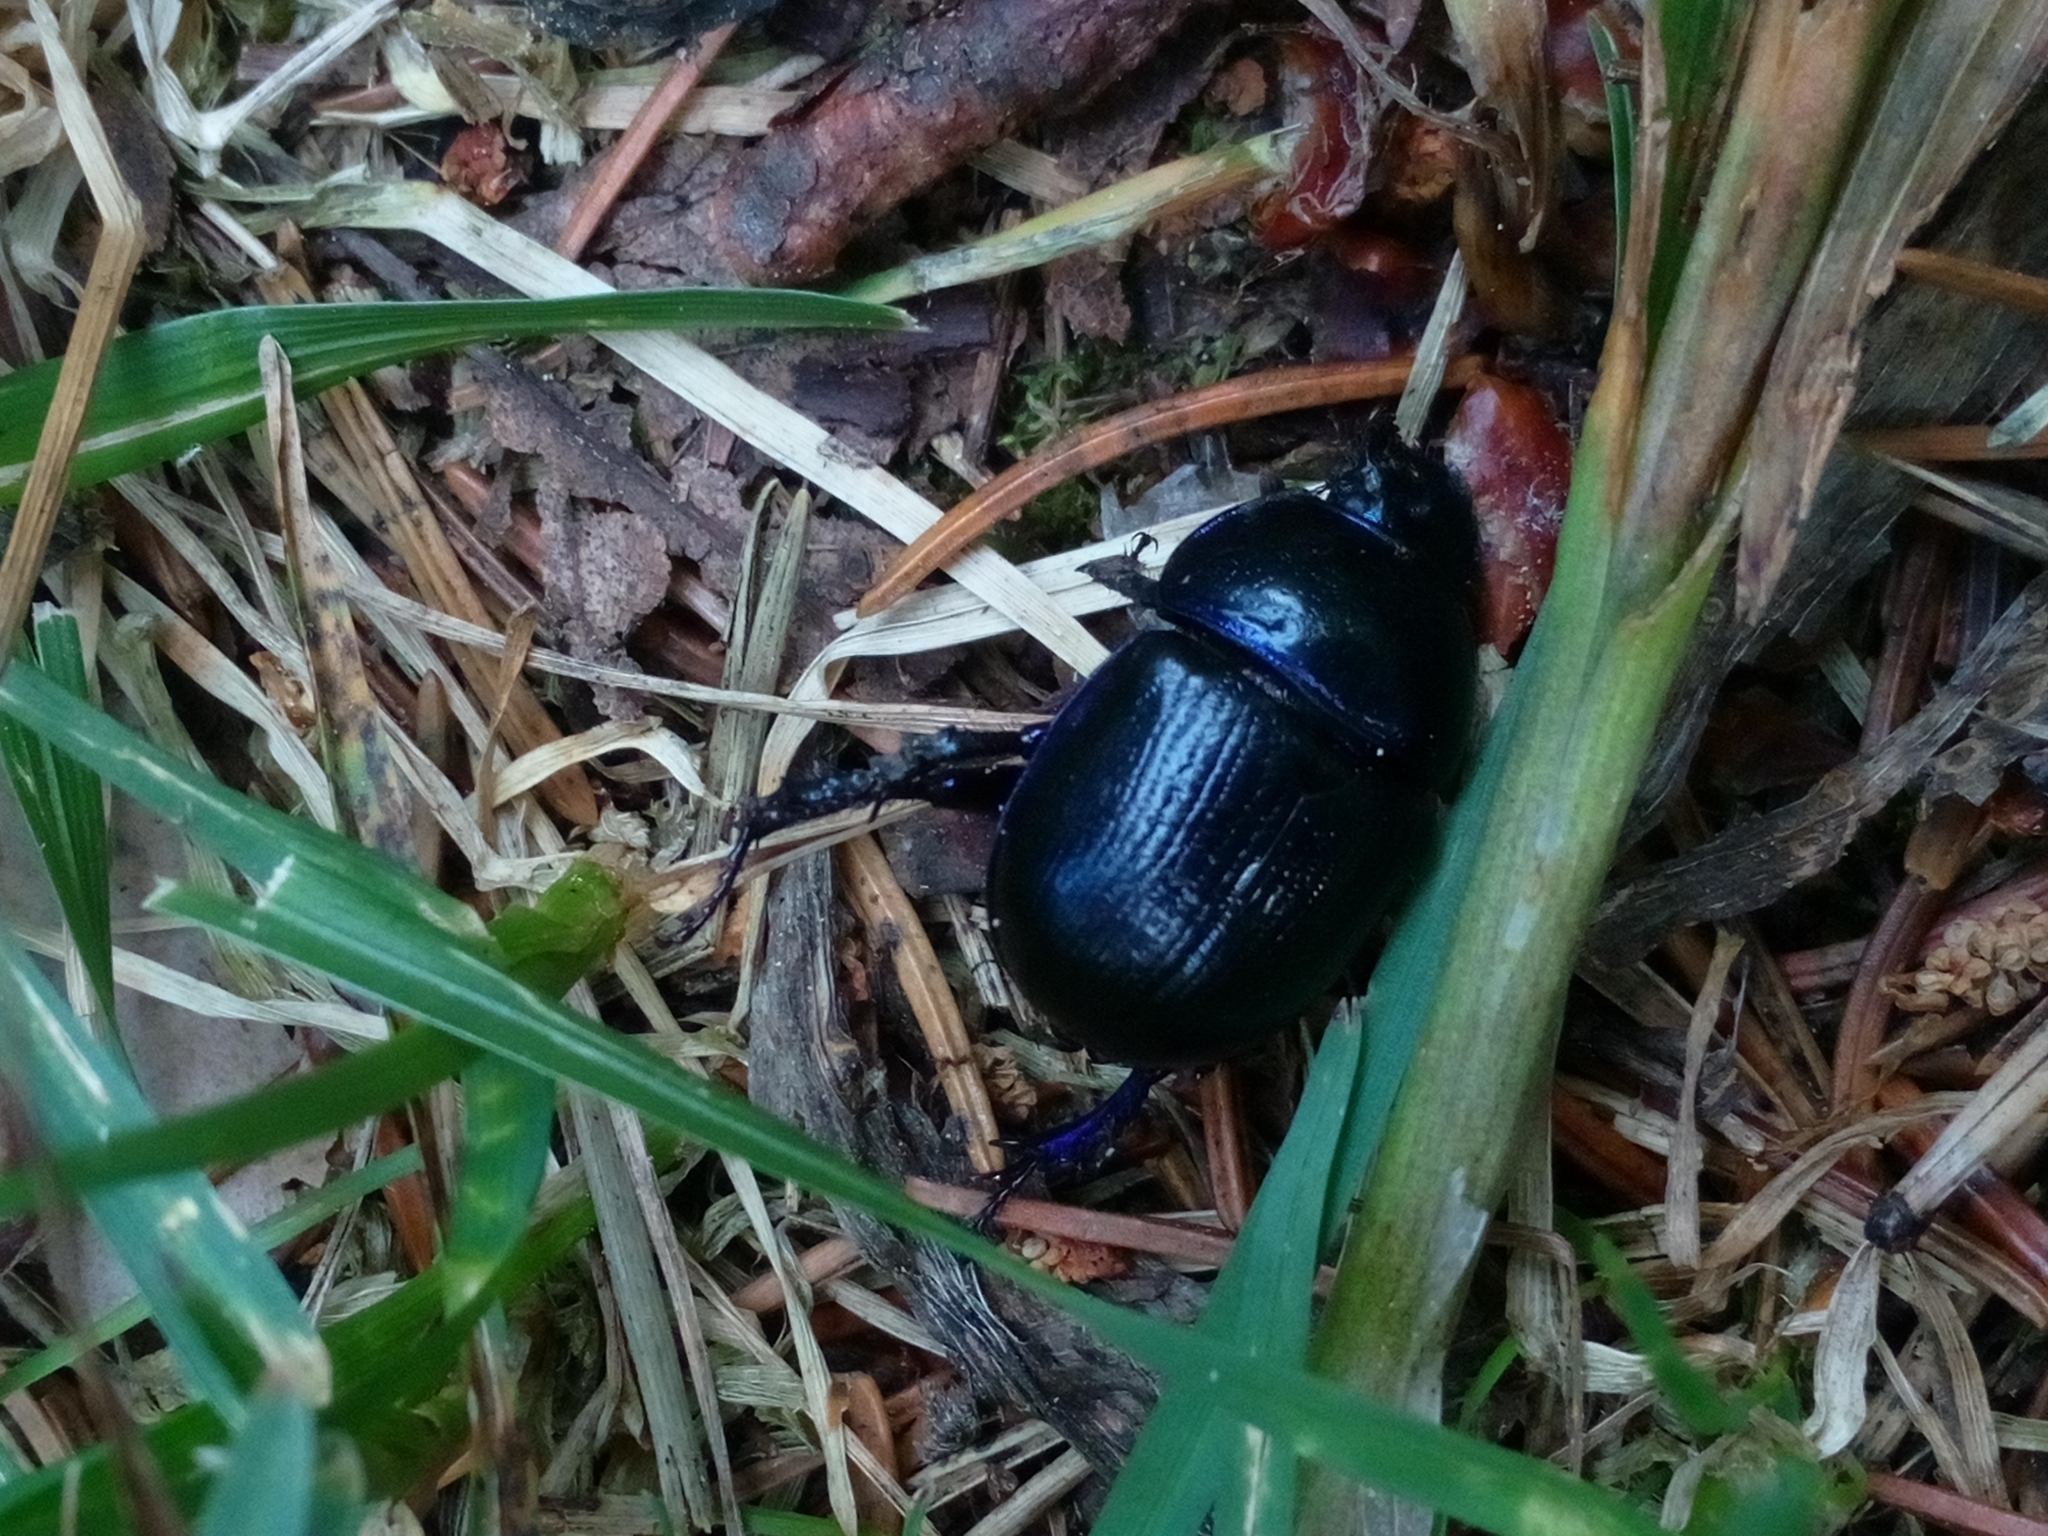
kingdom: Animalia
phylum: Arthropoda
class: Insecta
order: Coleoptera
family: Geotrupidae
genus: Anoplotrupes
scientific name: Anoplotrupes stercorosus
